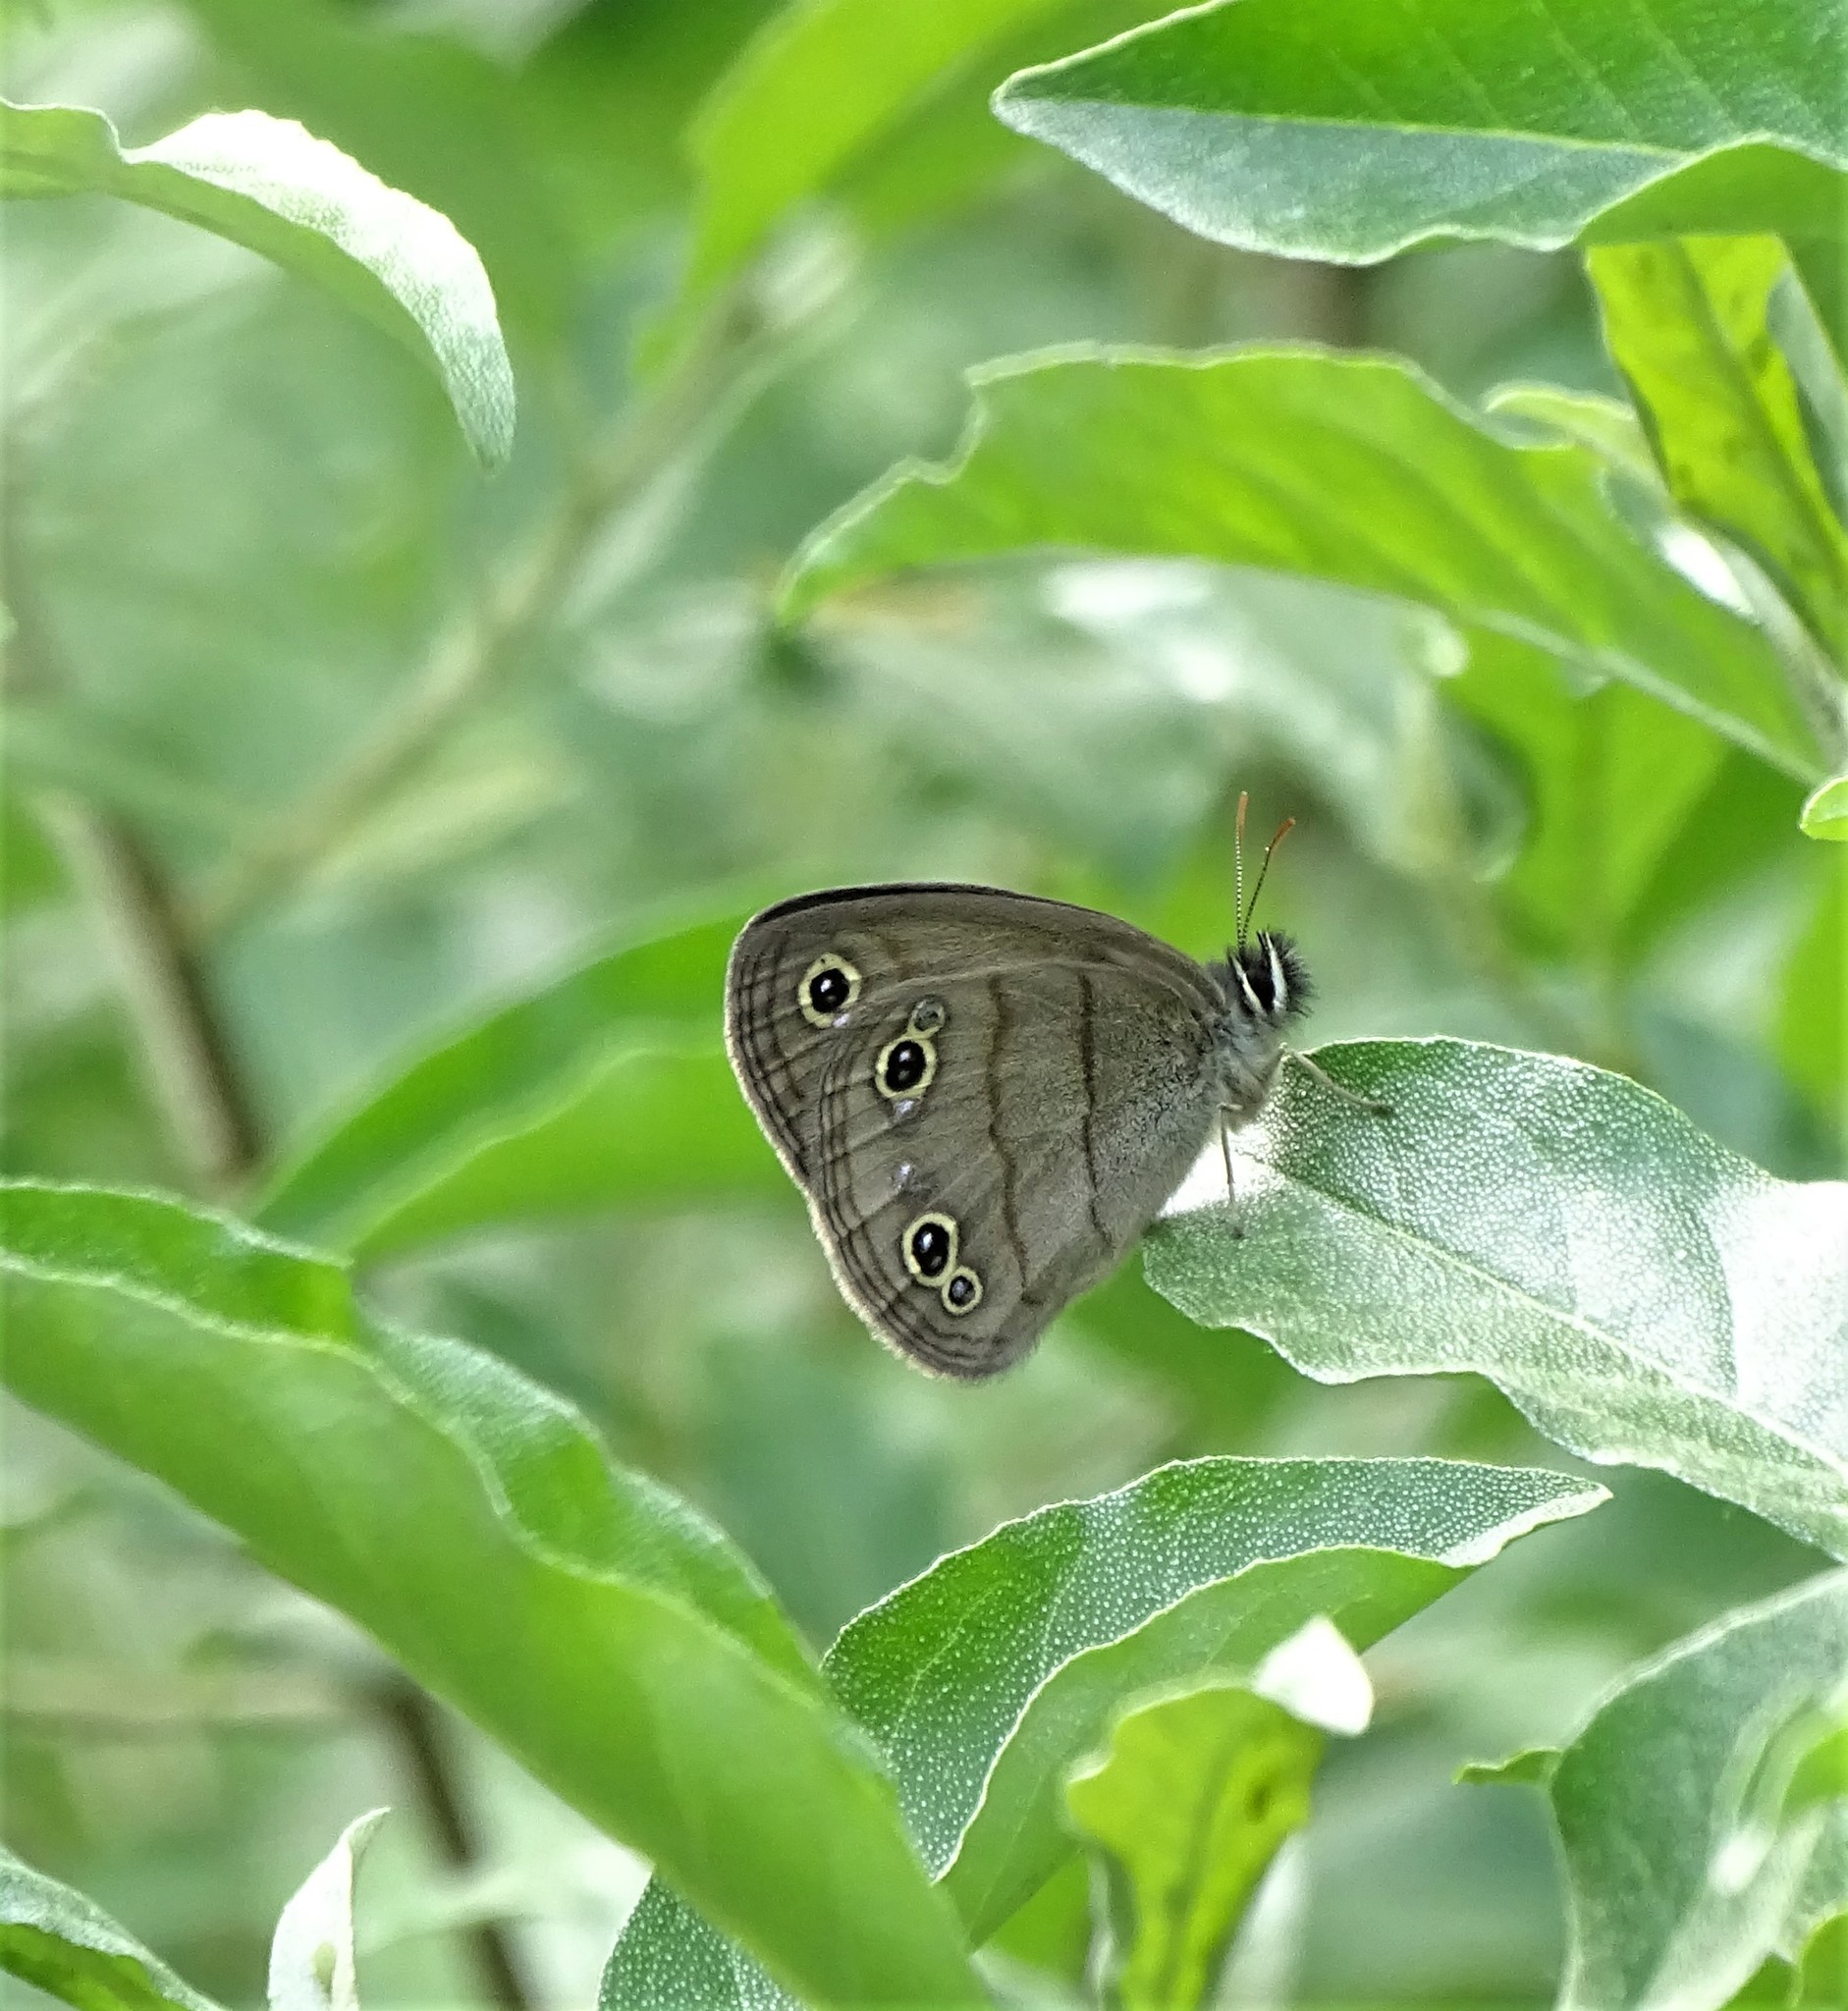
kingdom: Animalia
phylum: Arthropoda
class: Insecta
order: Lepidoptera
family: Nymphalidae
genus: Euptychia
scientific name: Euptychia cymela
